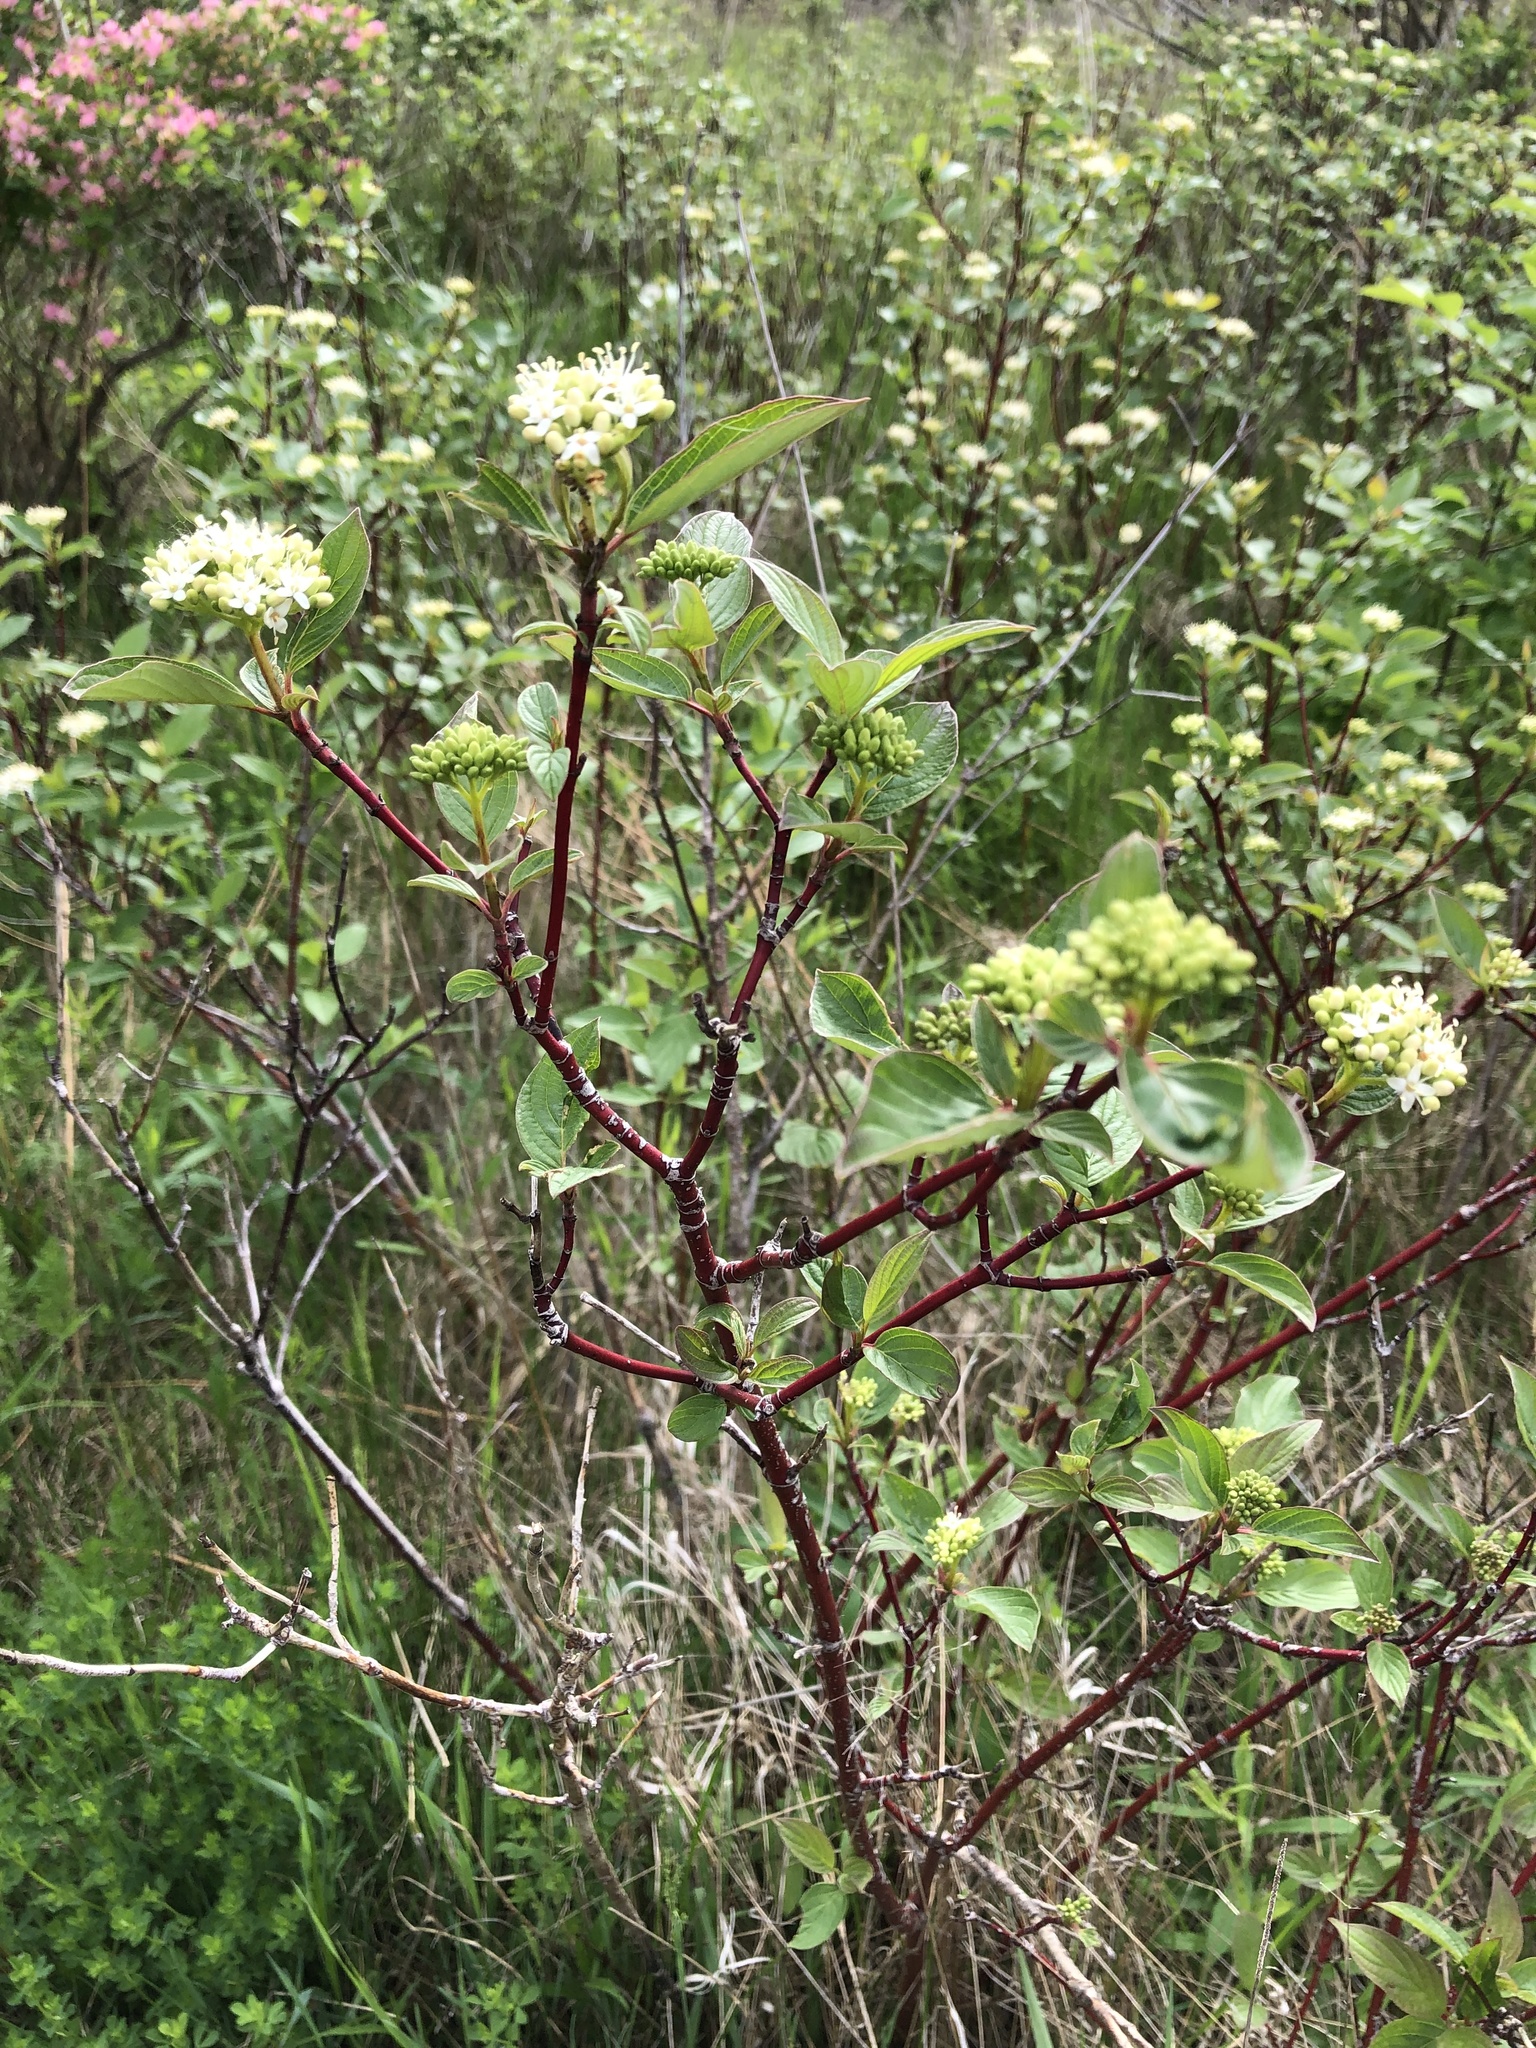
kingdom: Plantae
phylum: Tracheophyta
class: Magnoliopsida
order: Cornales
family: Cornaceae
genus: Cornus
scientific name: Cornus sericea
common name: Red-osier dogwood
